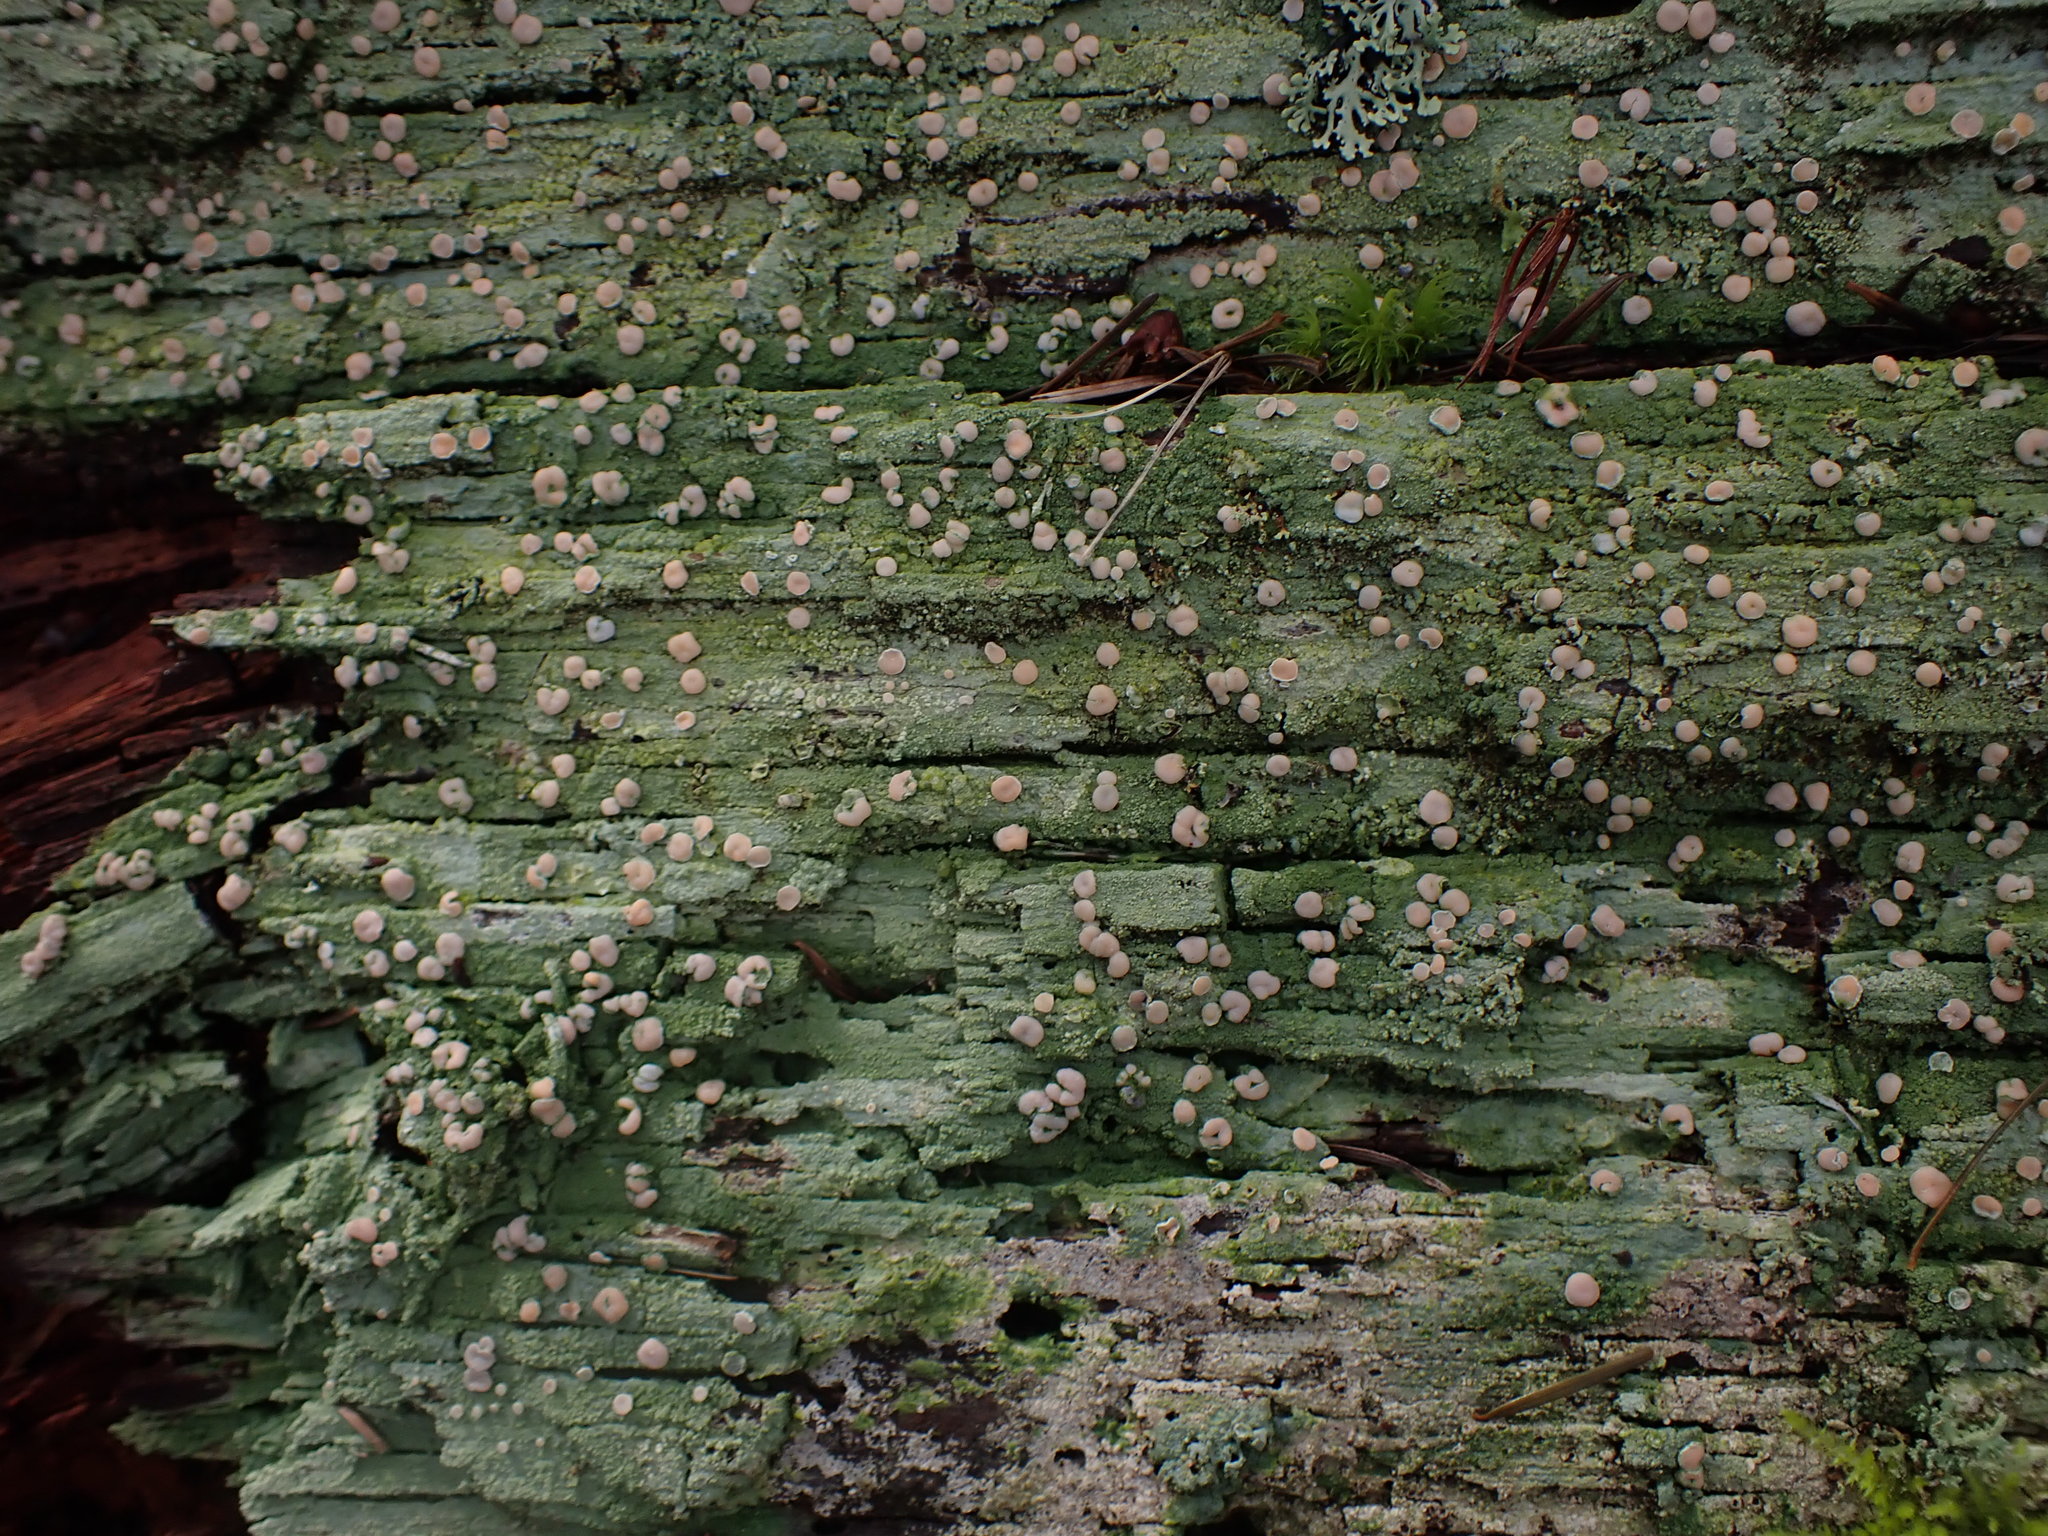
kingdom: Fungi
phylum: Ascomycota
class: Lecanoromycetes
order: Pertusariales
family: Icmadophilaceae
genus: Icmadophila
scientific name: Icmadophila ericetorum
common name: Candy lichen
